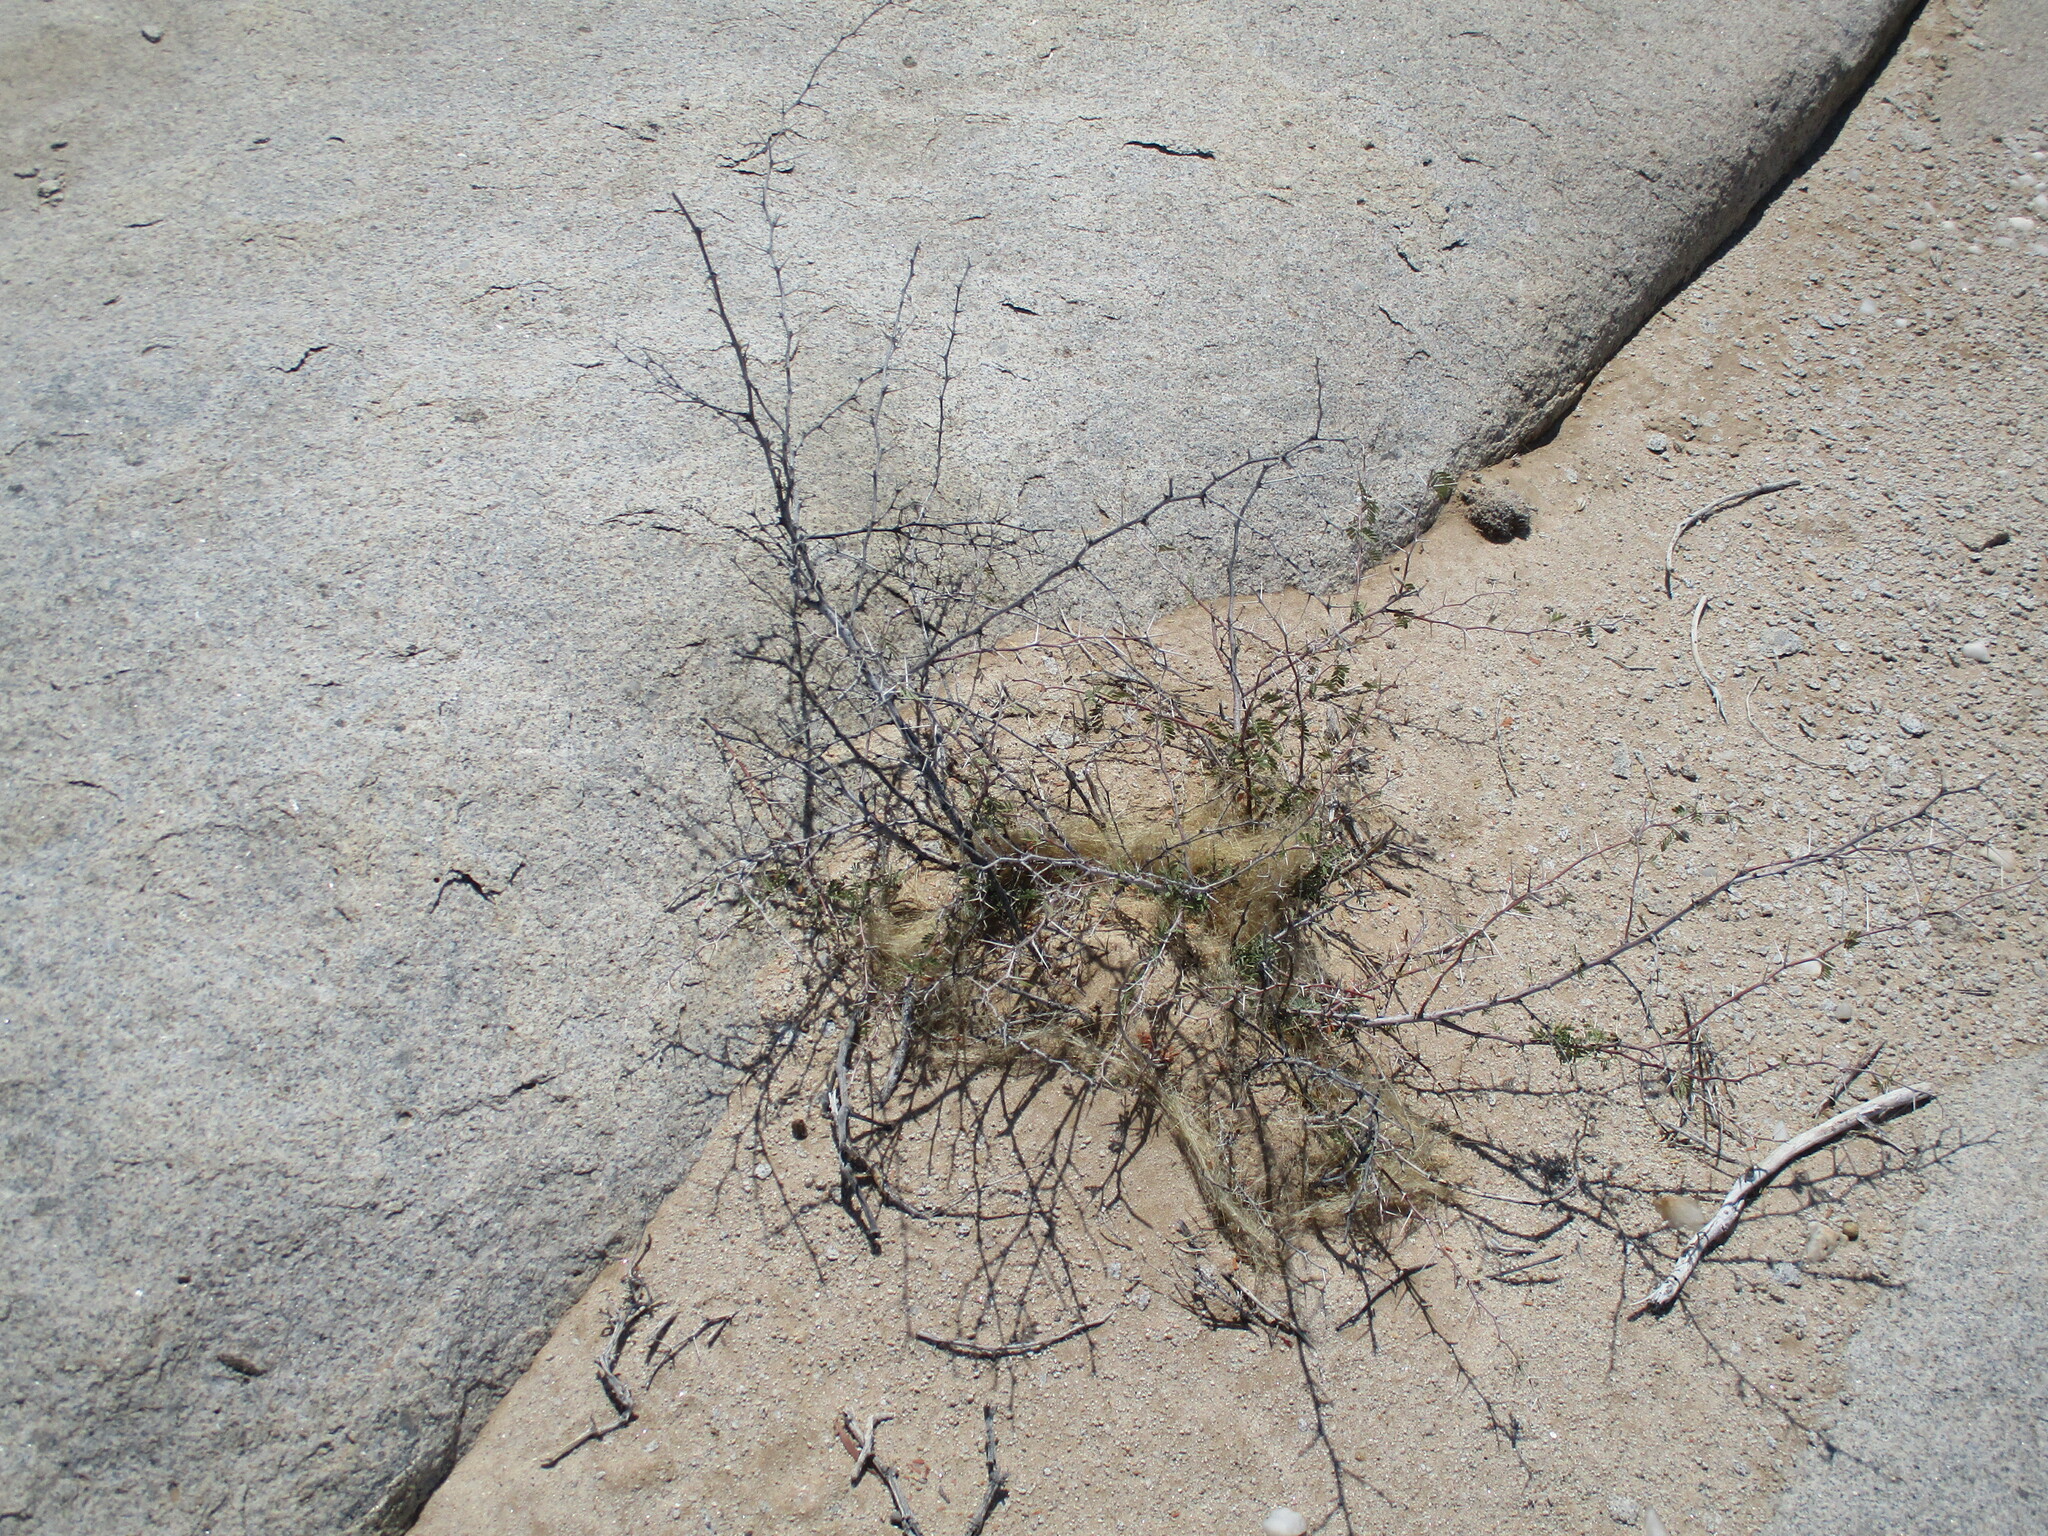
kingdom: Plantae
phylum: Tracheophyta
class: Magnoliopsida
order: Fabales
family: Fabaceae
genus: Vachellia
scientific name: Vachellia erioloba
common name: Camel thorn
